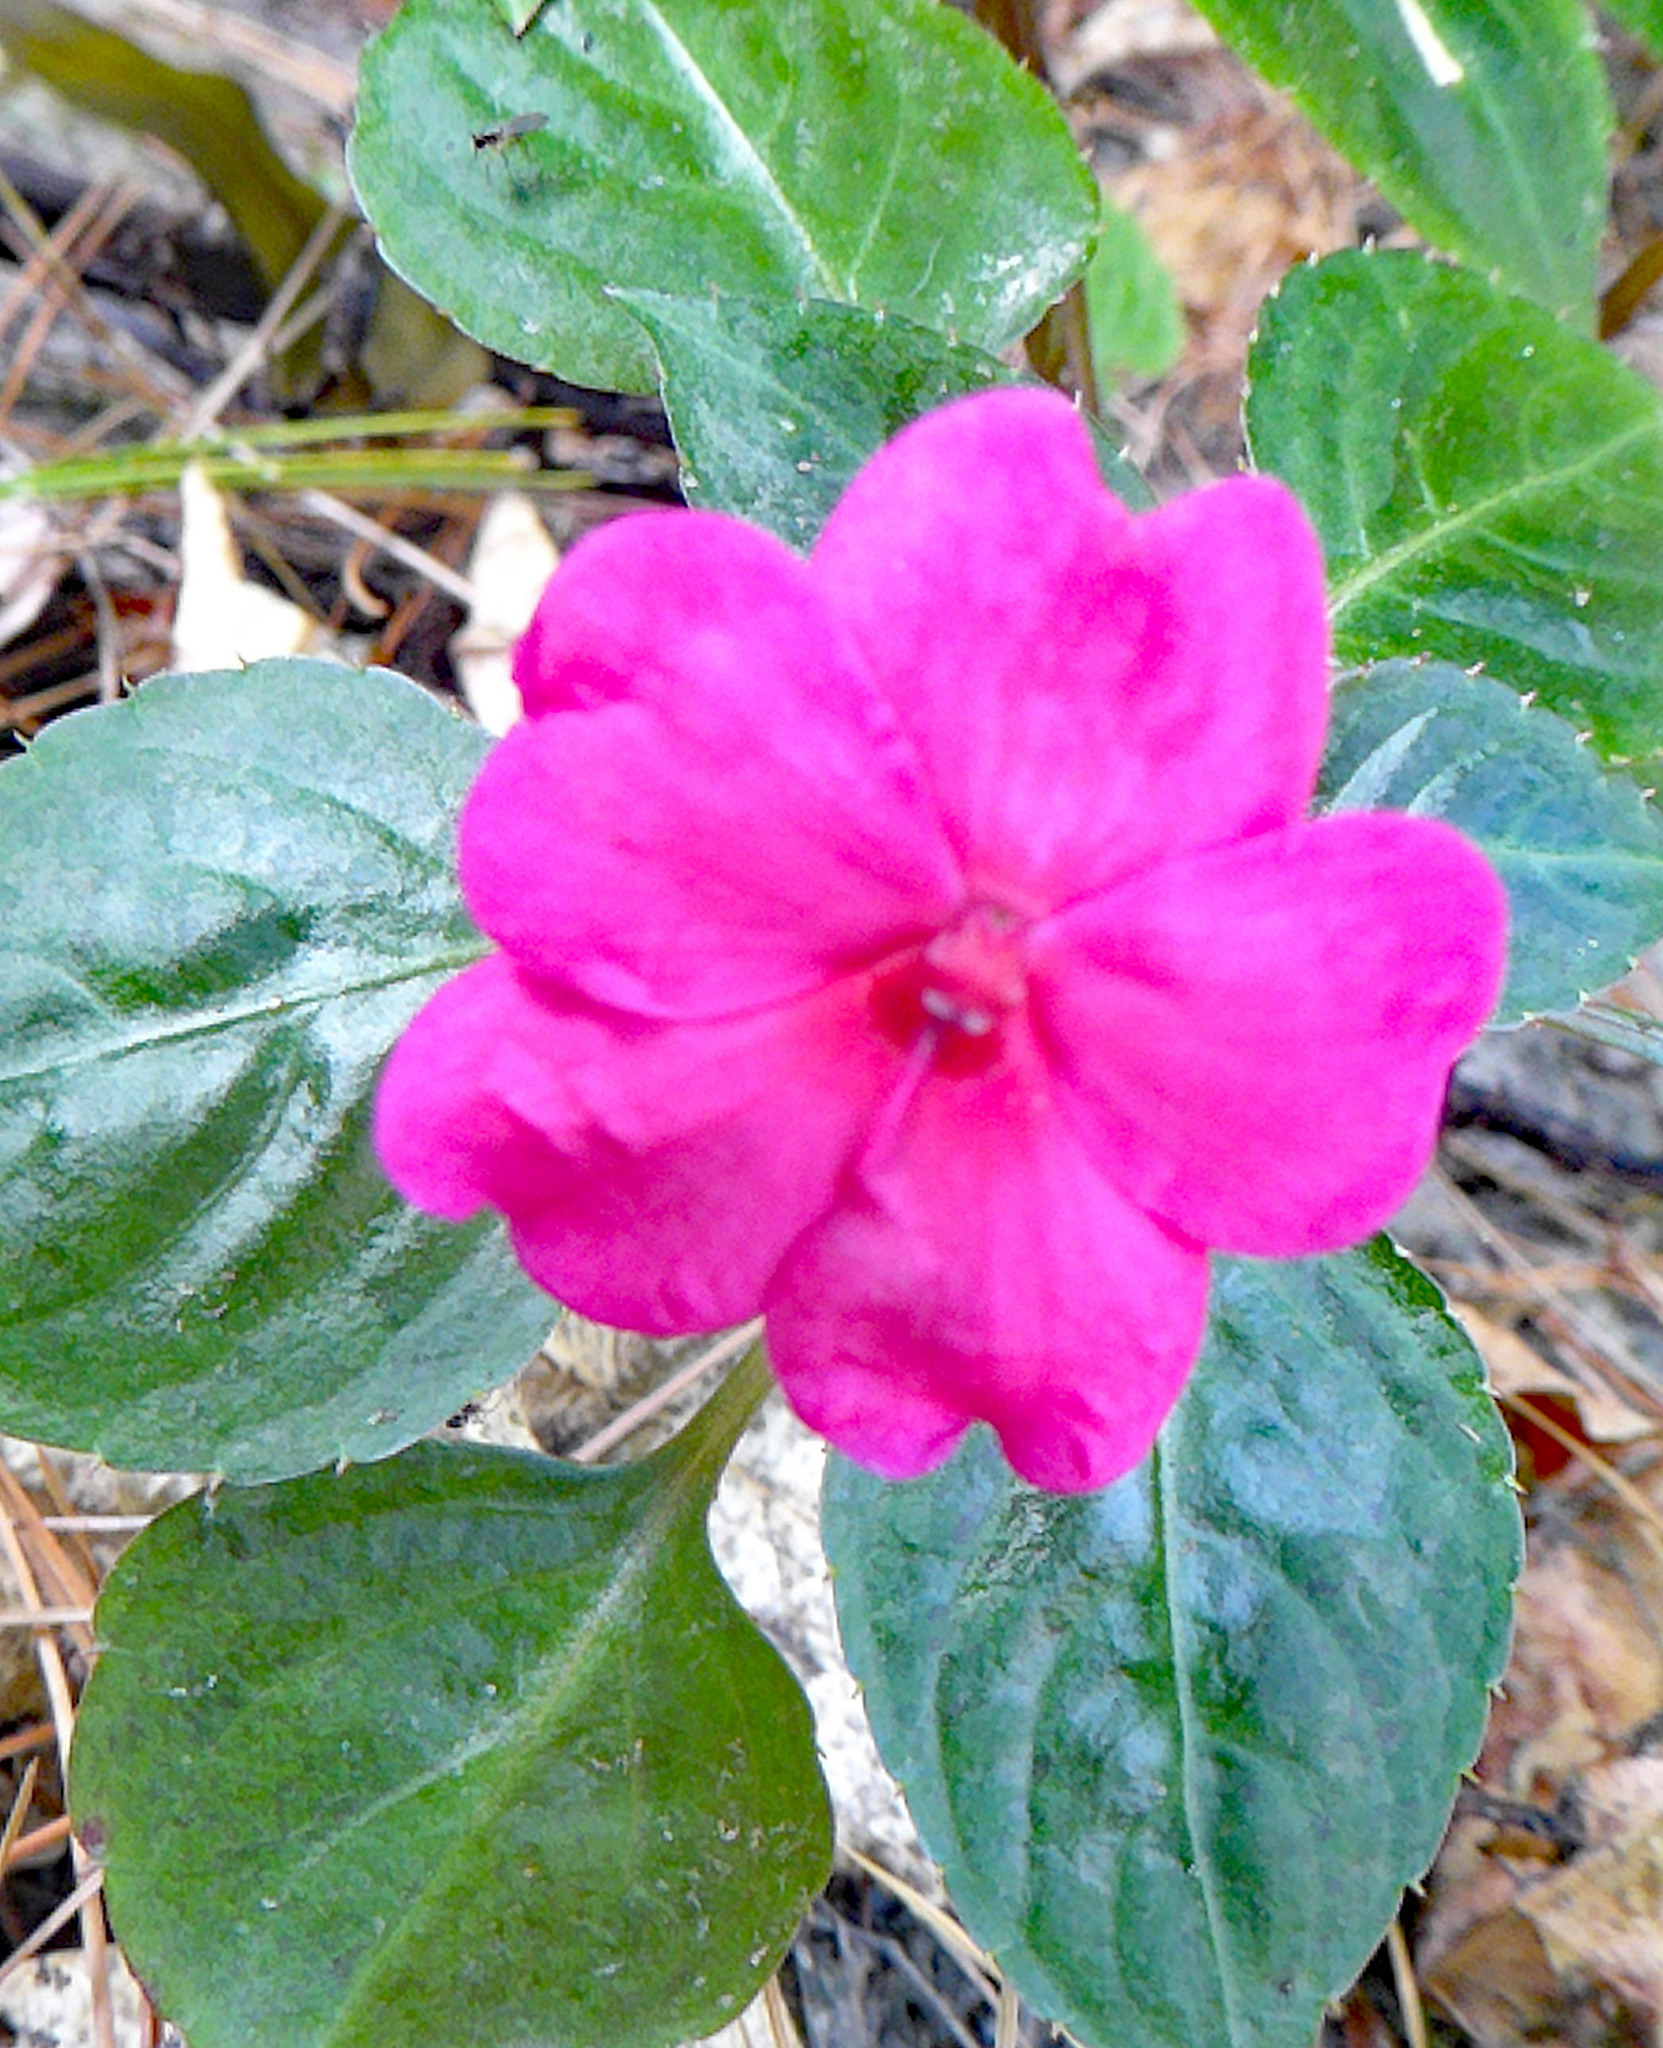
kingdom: Plantae
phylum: Tracheophyta
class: Magnoliopsida
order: Ericales
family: Balsaminaceae
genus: Impatiens
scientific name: Impatiens walleriana
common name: Buzzy lizzy
